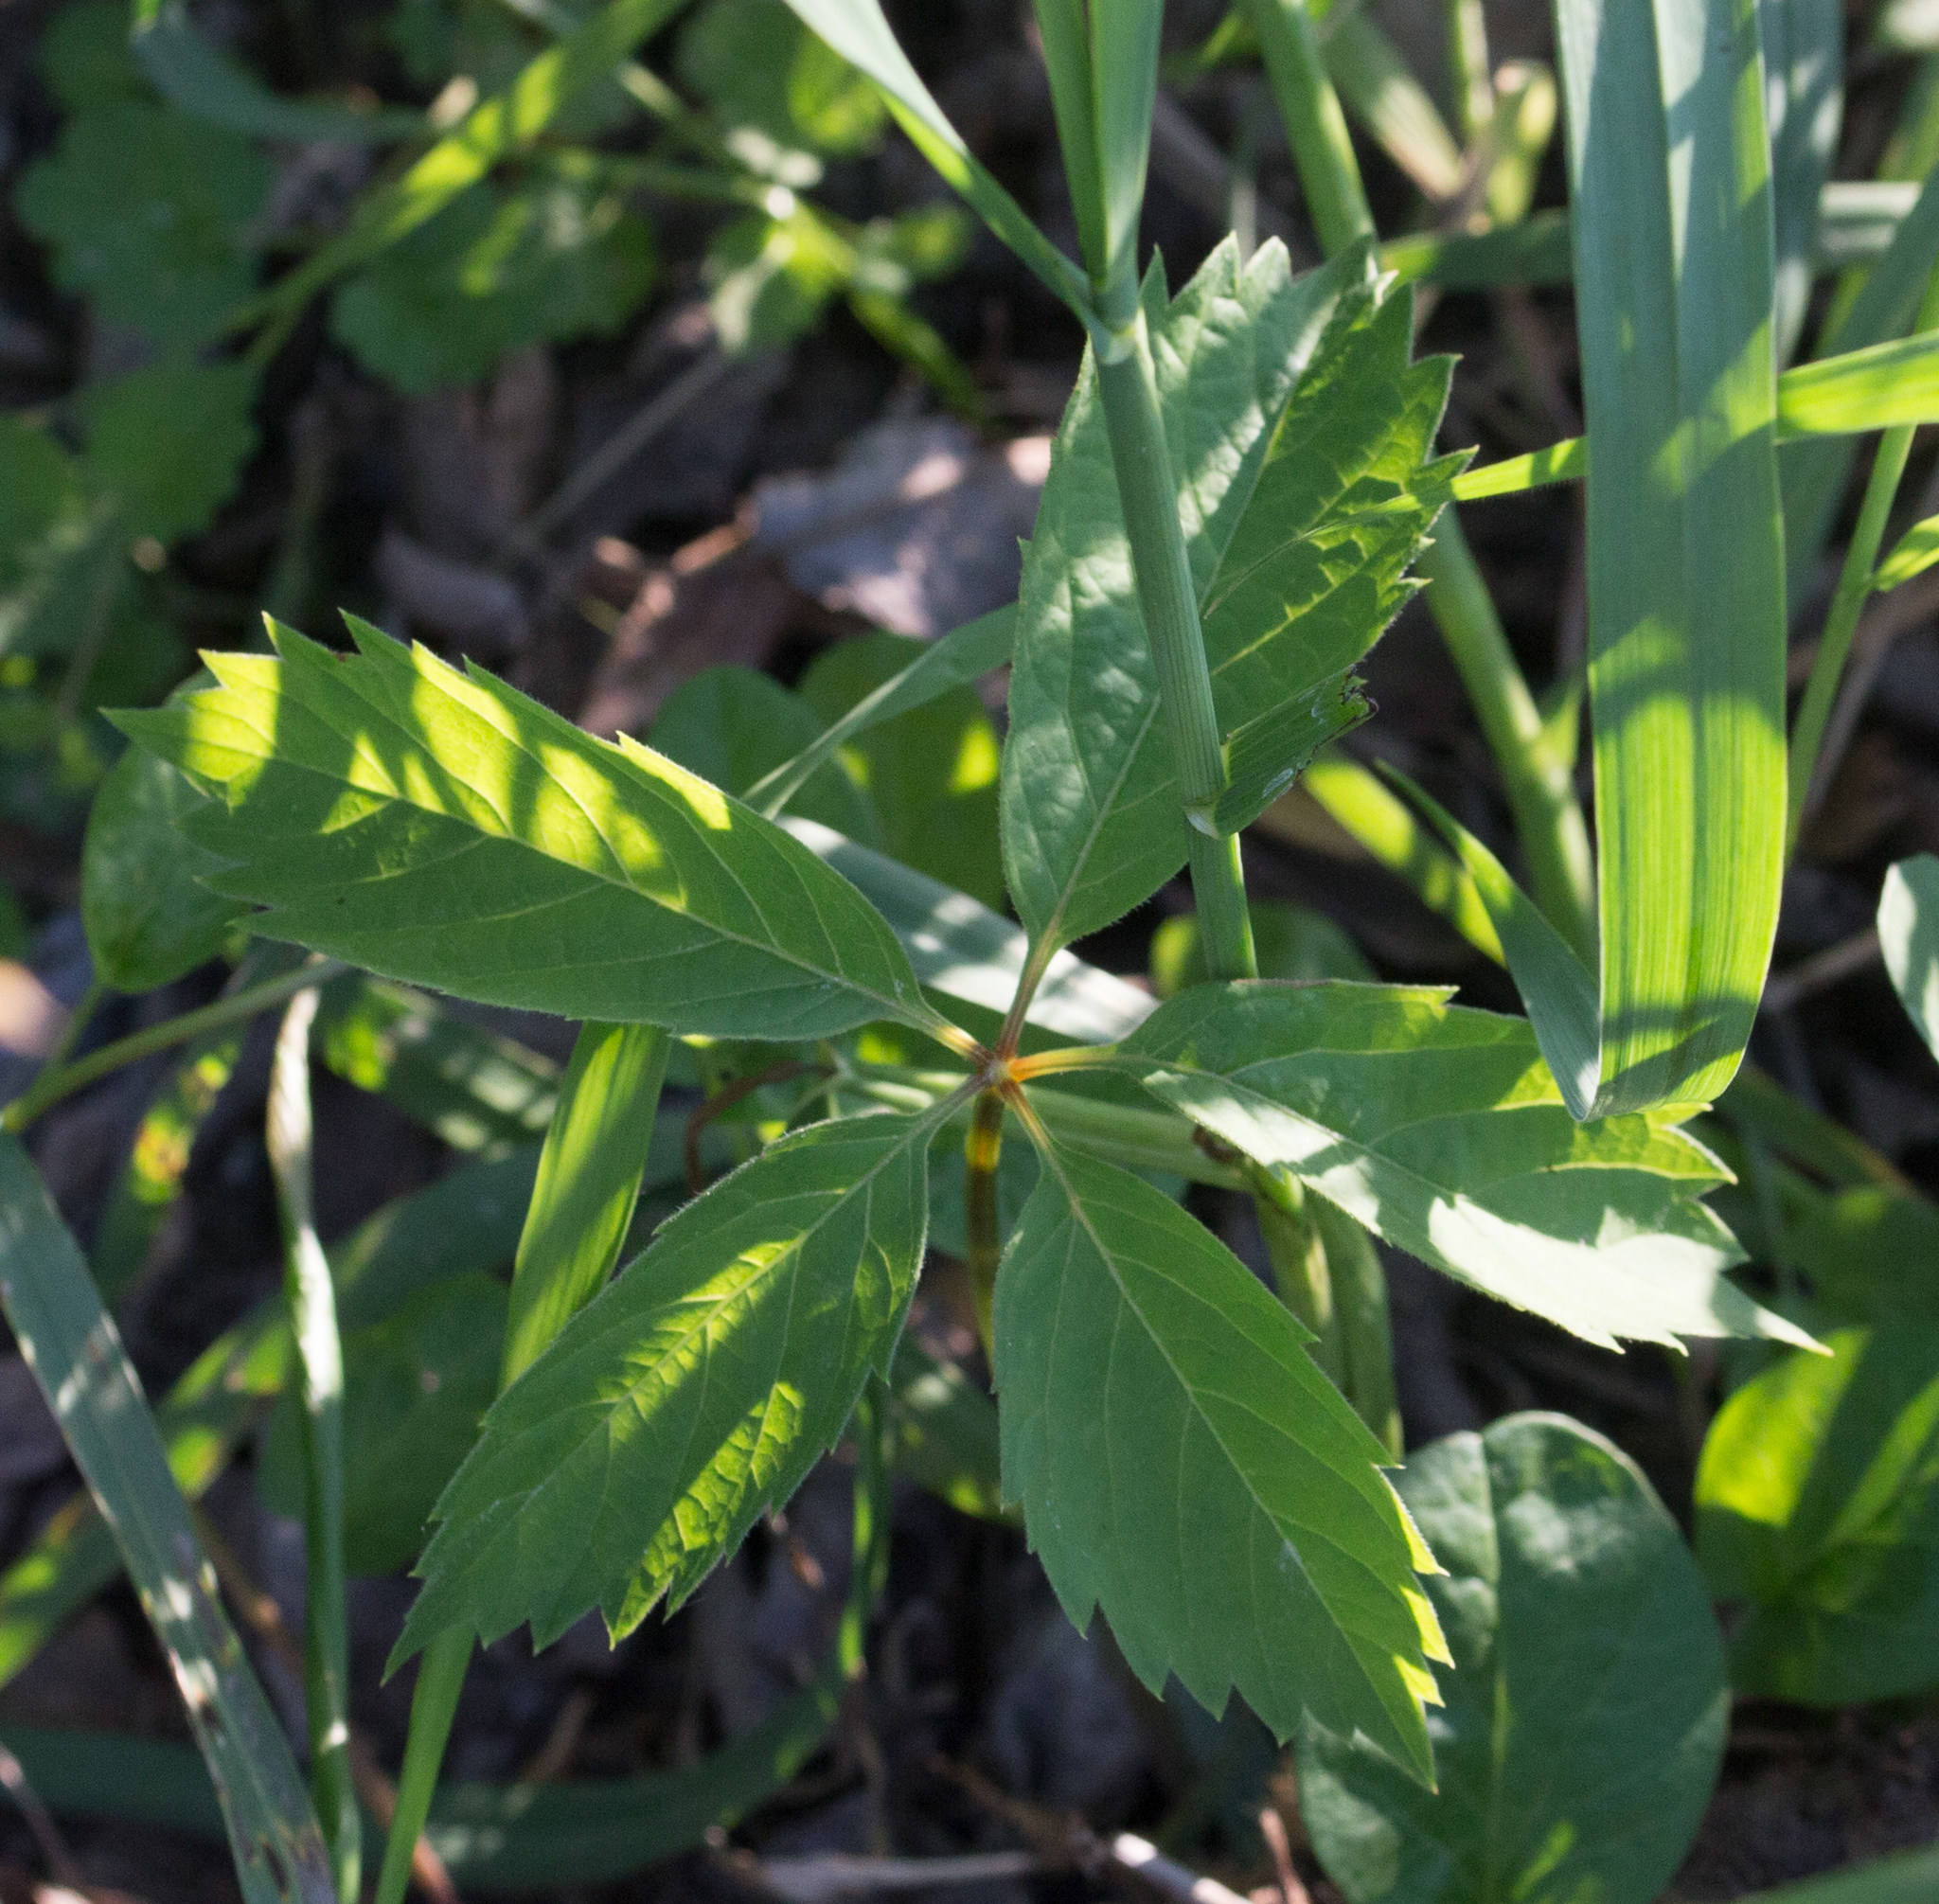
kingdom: Plantae
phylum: Tracheophyta
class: Magnoliopsida
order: Vitales
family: Vitaceae
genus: Parthenocissus
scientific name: Parthenocissus inserta
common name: False virginia-creeper
